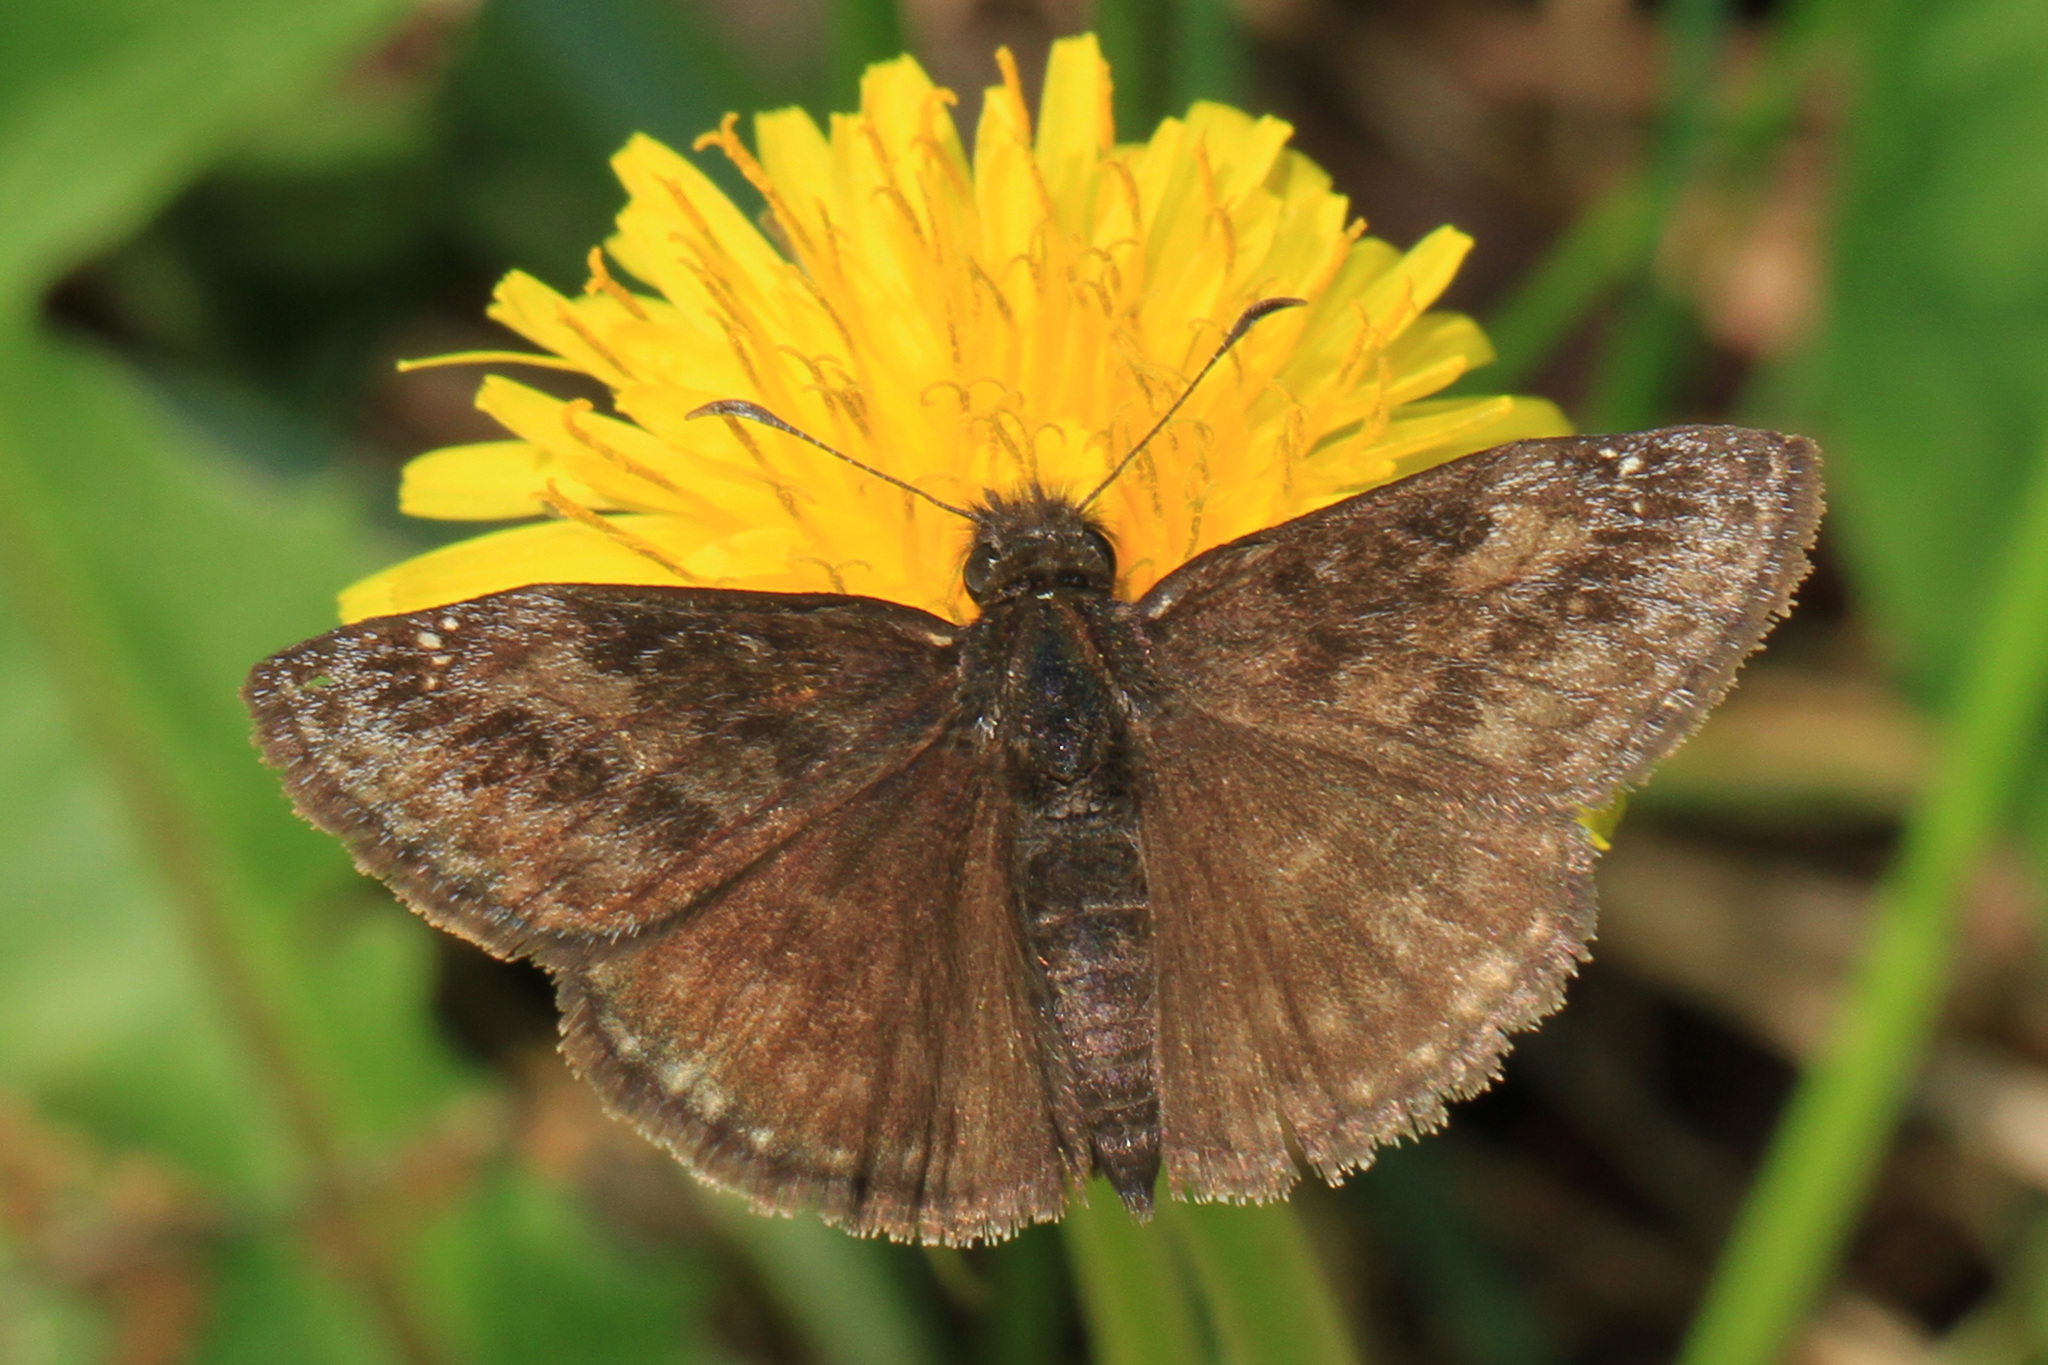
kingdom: Animalia
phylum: Arthropoda
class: Insecta
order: Lepidoptera
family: Hesperiidae
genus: Erynnis
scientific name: Erynnis baptisiae
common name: Wild indigo duskywing
